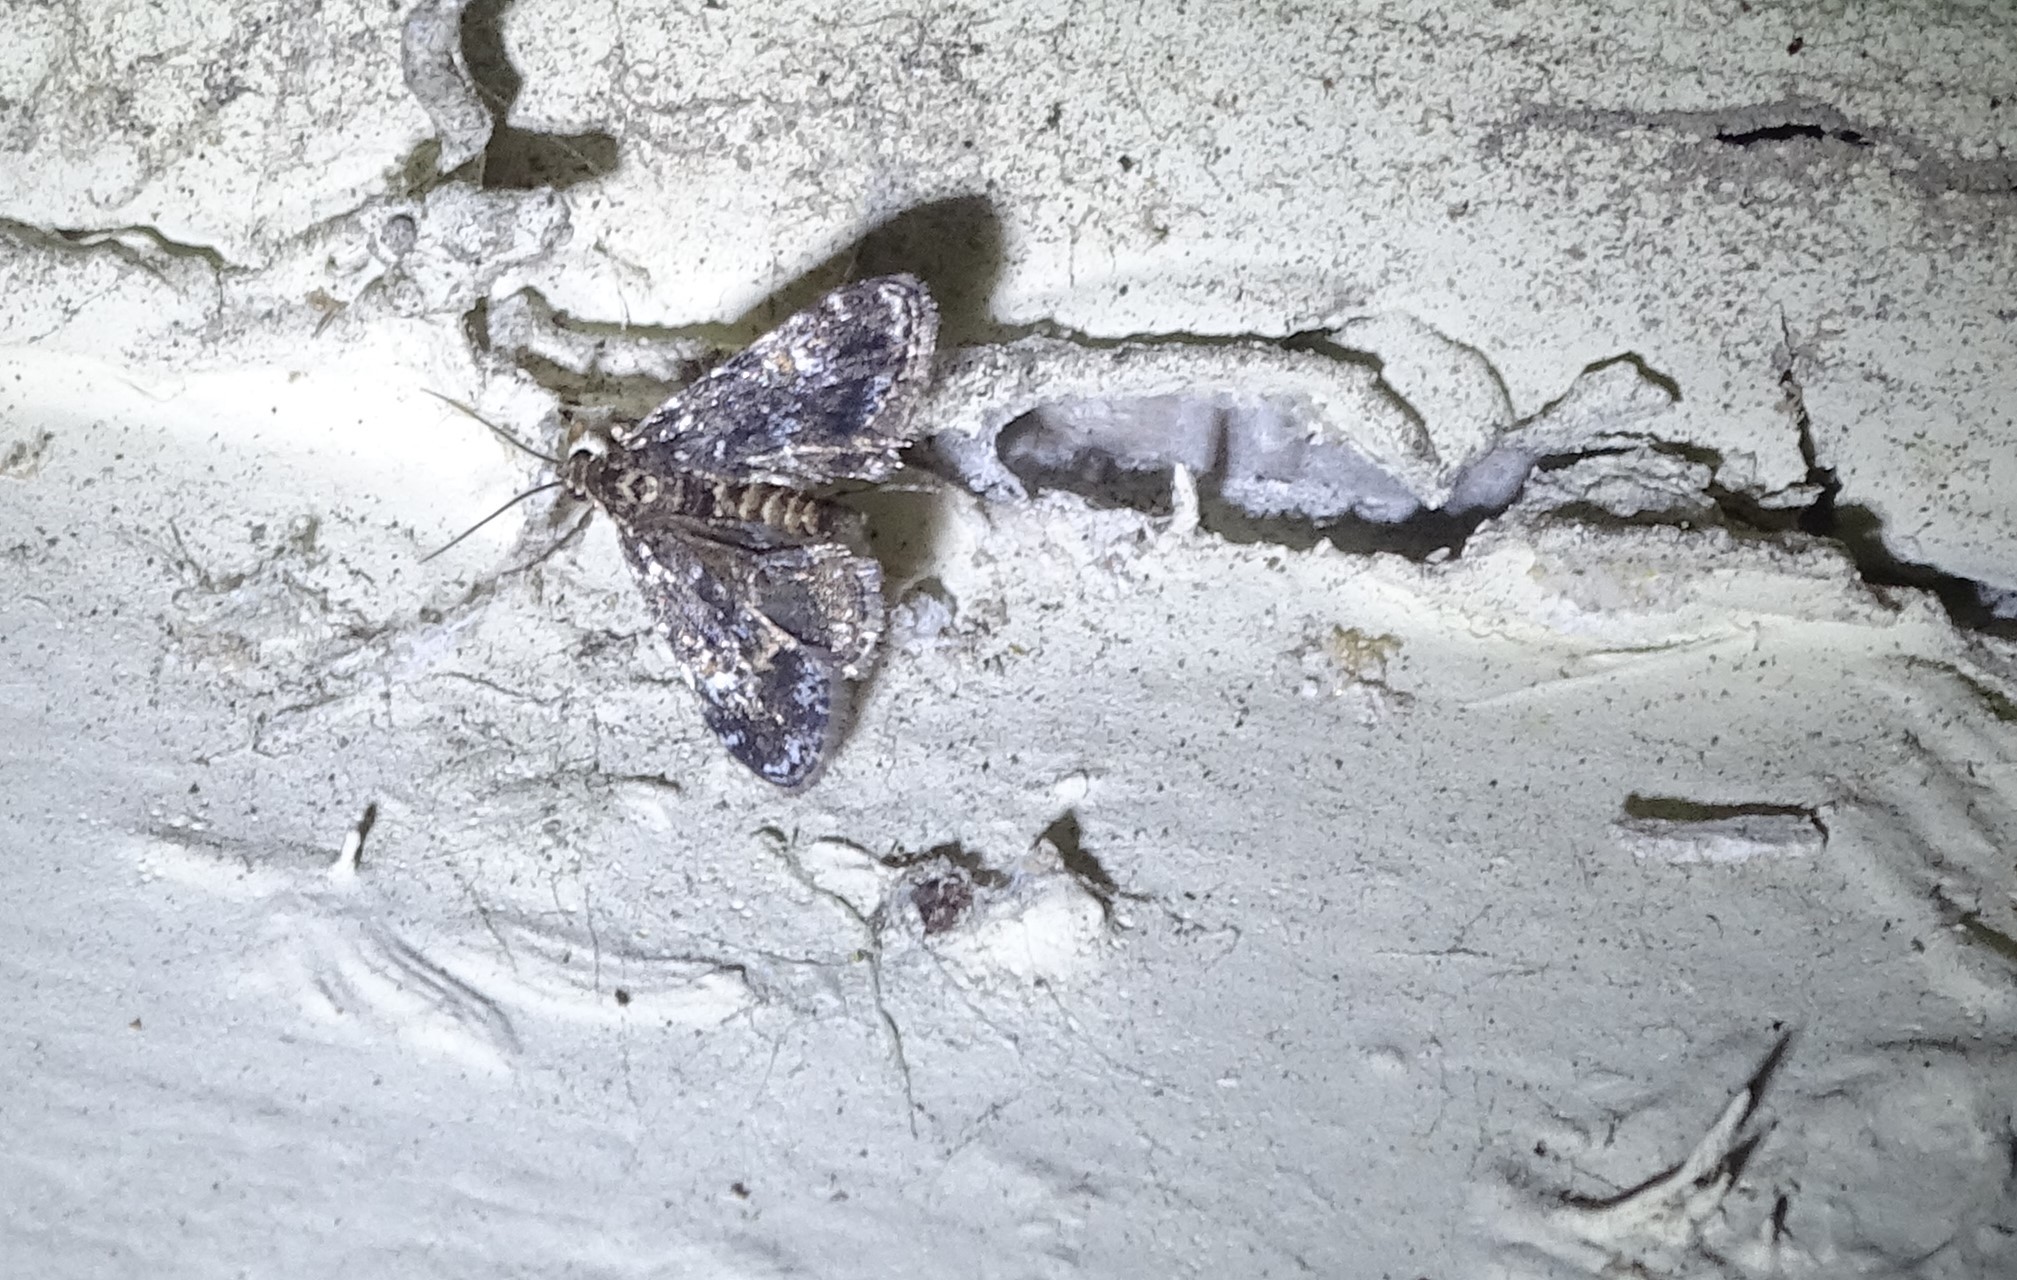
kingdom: Animalia
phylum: Arthropoda
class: Insecta
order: Lepidoptera
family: Crambidae
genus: Elophila
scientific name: Elophila obliteralis
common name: Waterlily leafcutter moth
